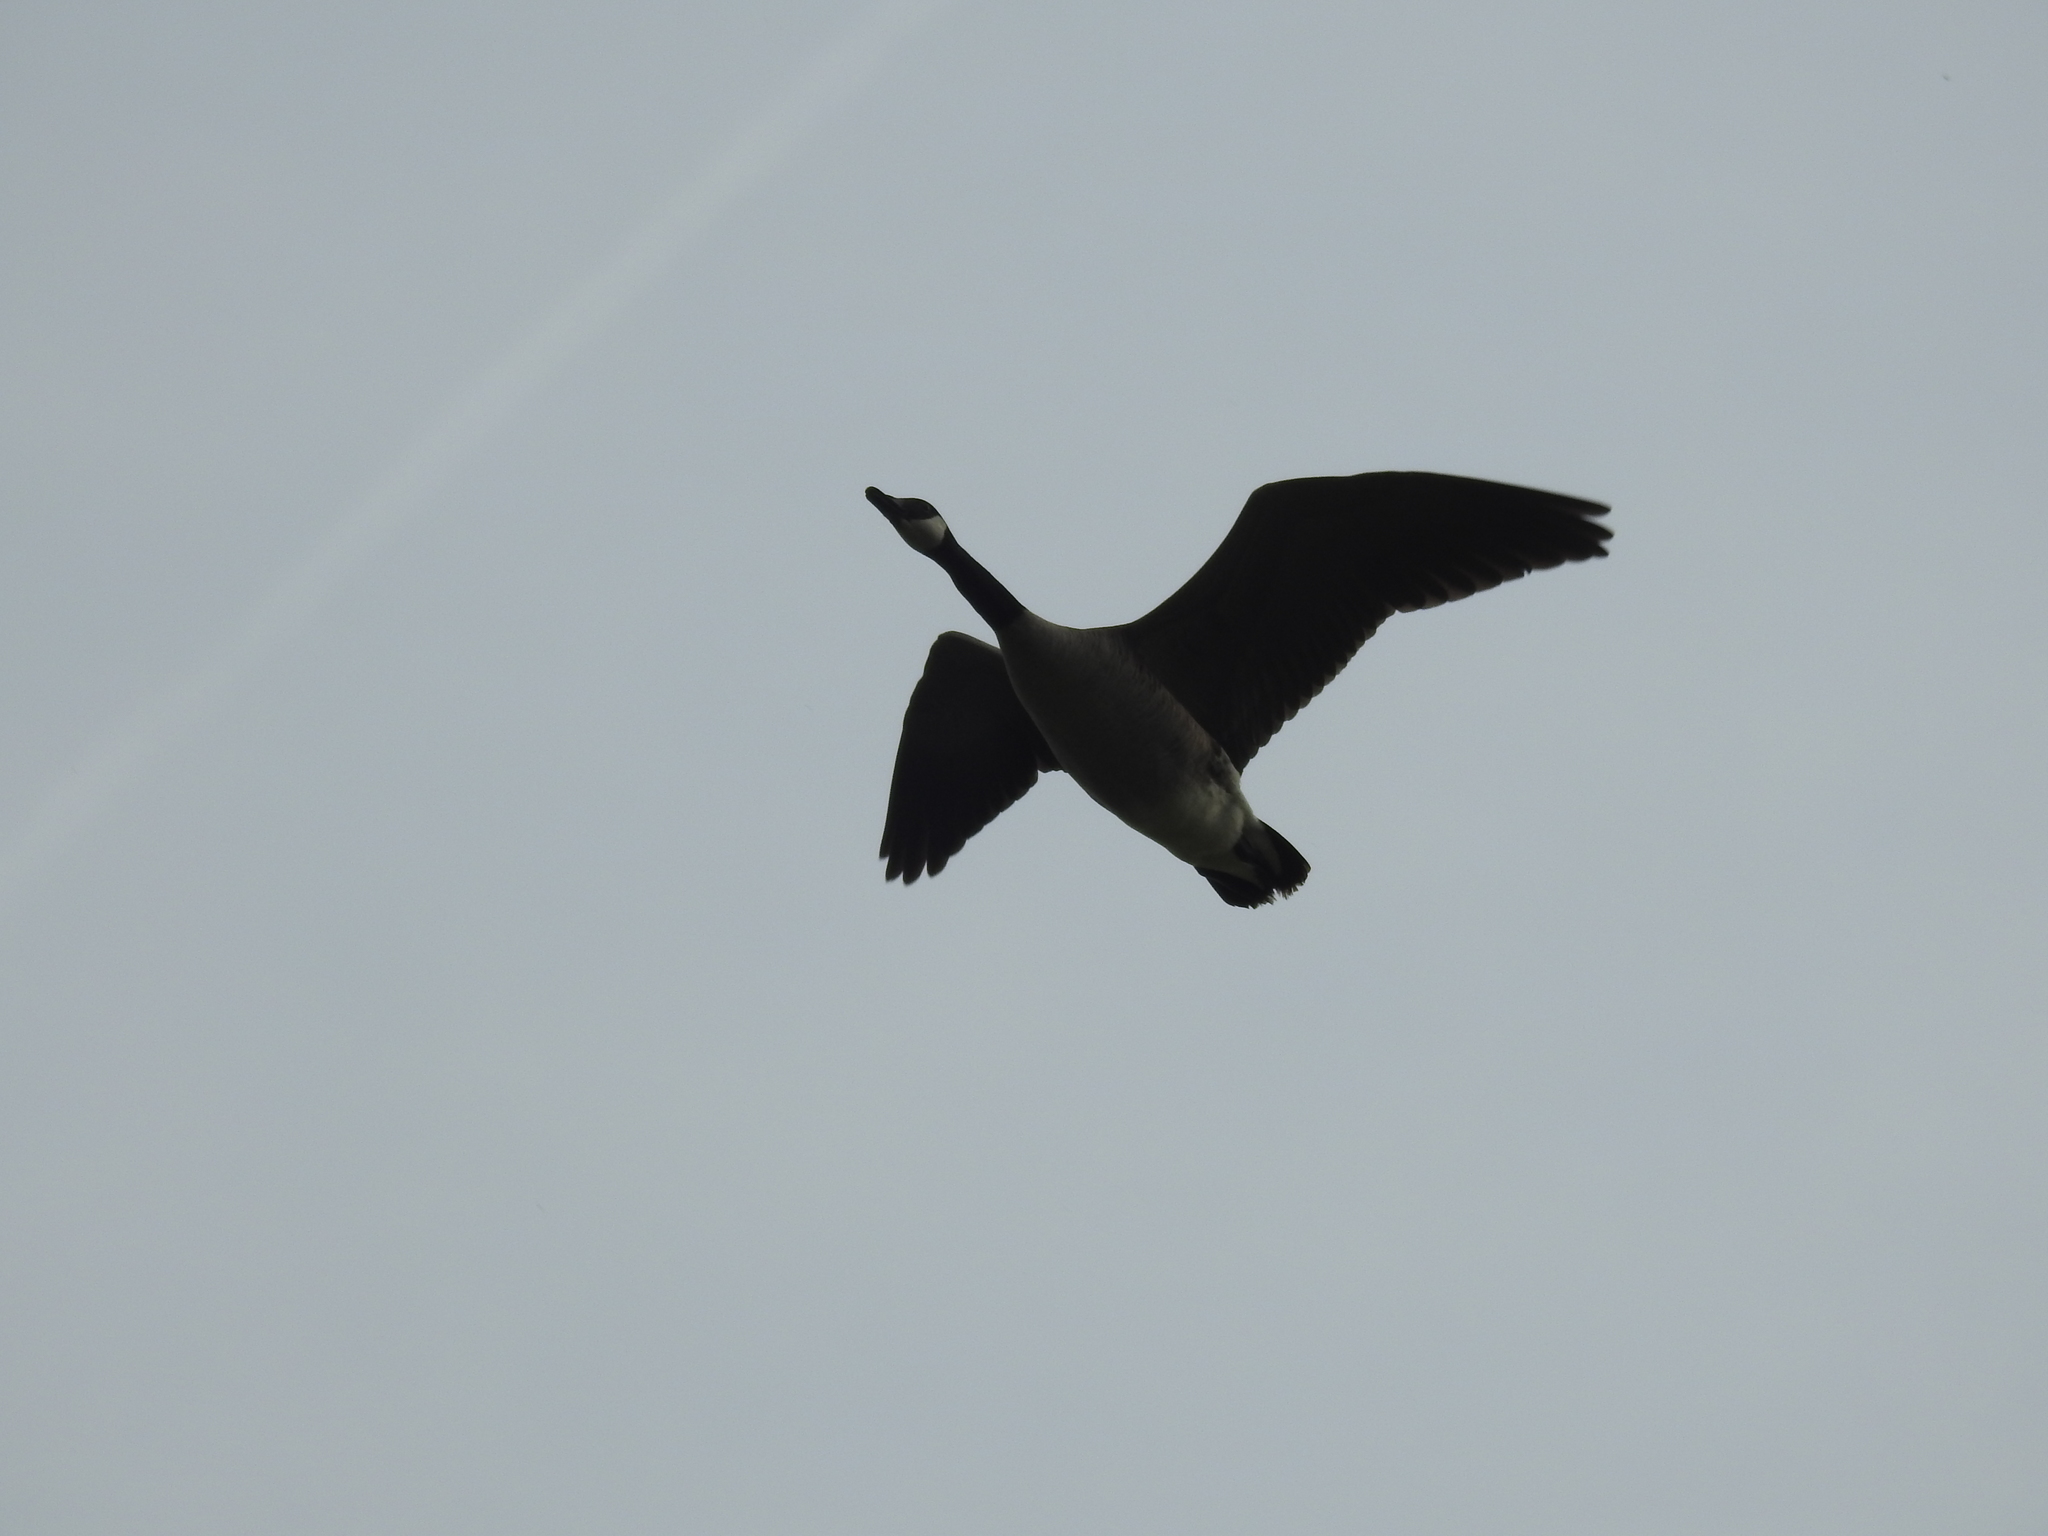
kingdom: Animalia
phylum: Chordata
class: Aves
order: Anseriformes
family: Anatidae
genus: Branta
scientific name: Branta canadensis
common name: Canada goose
